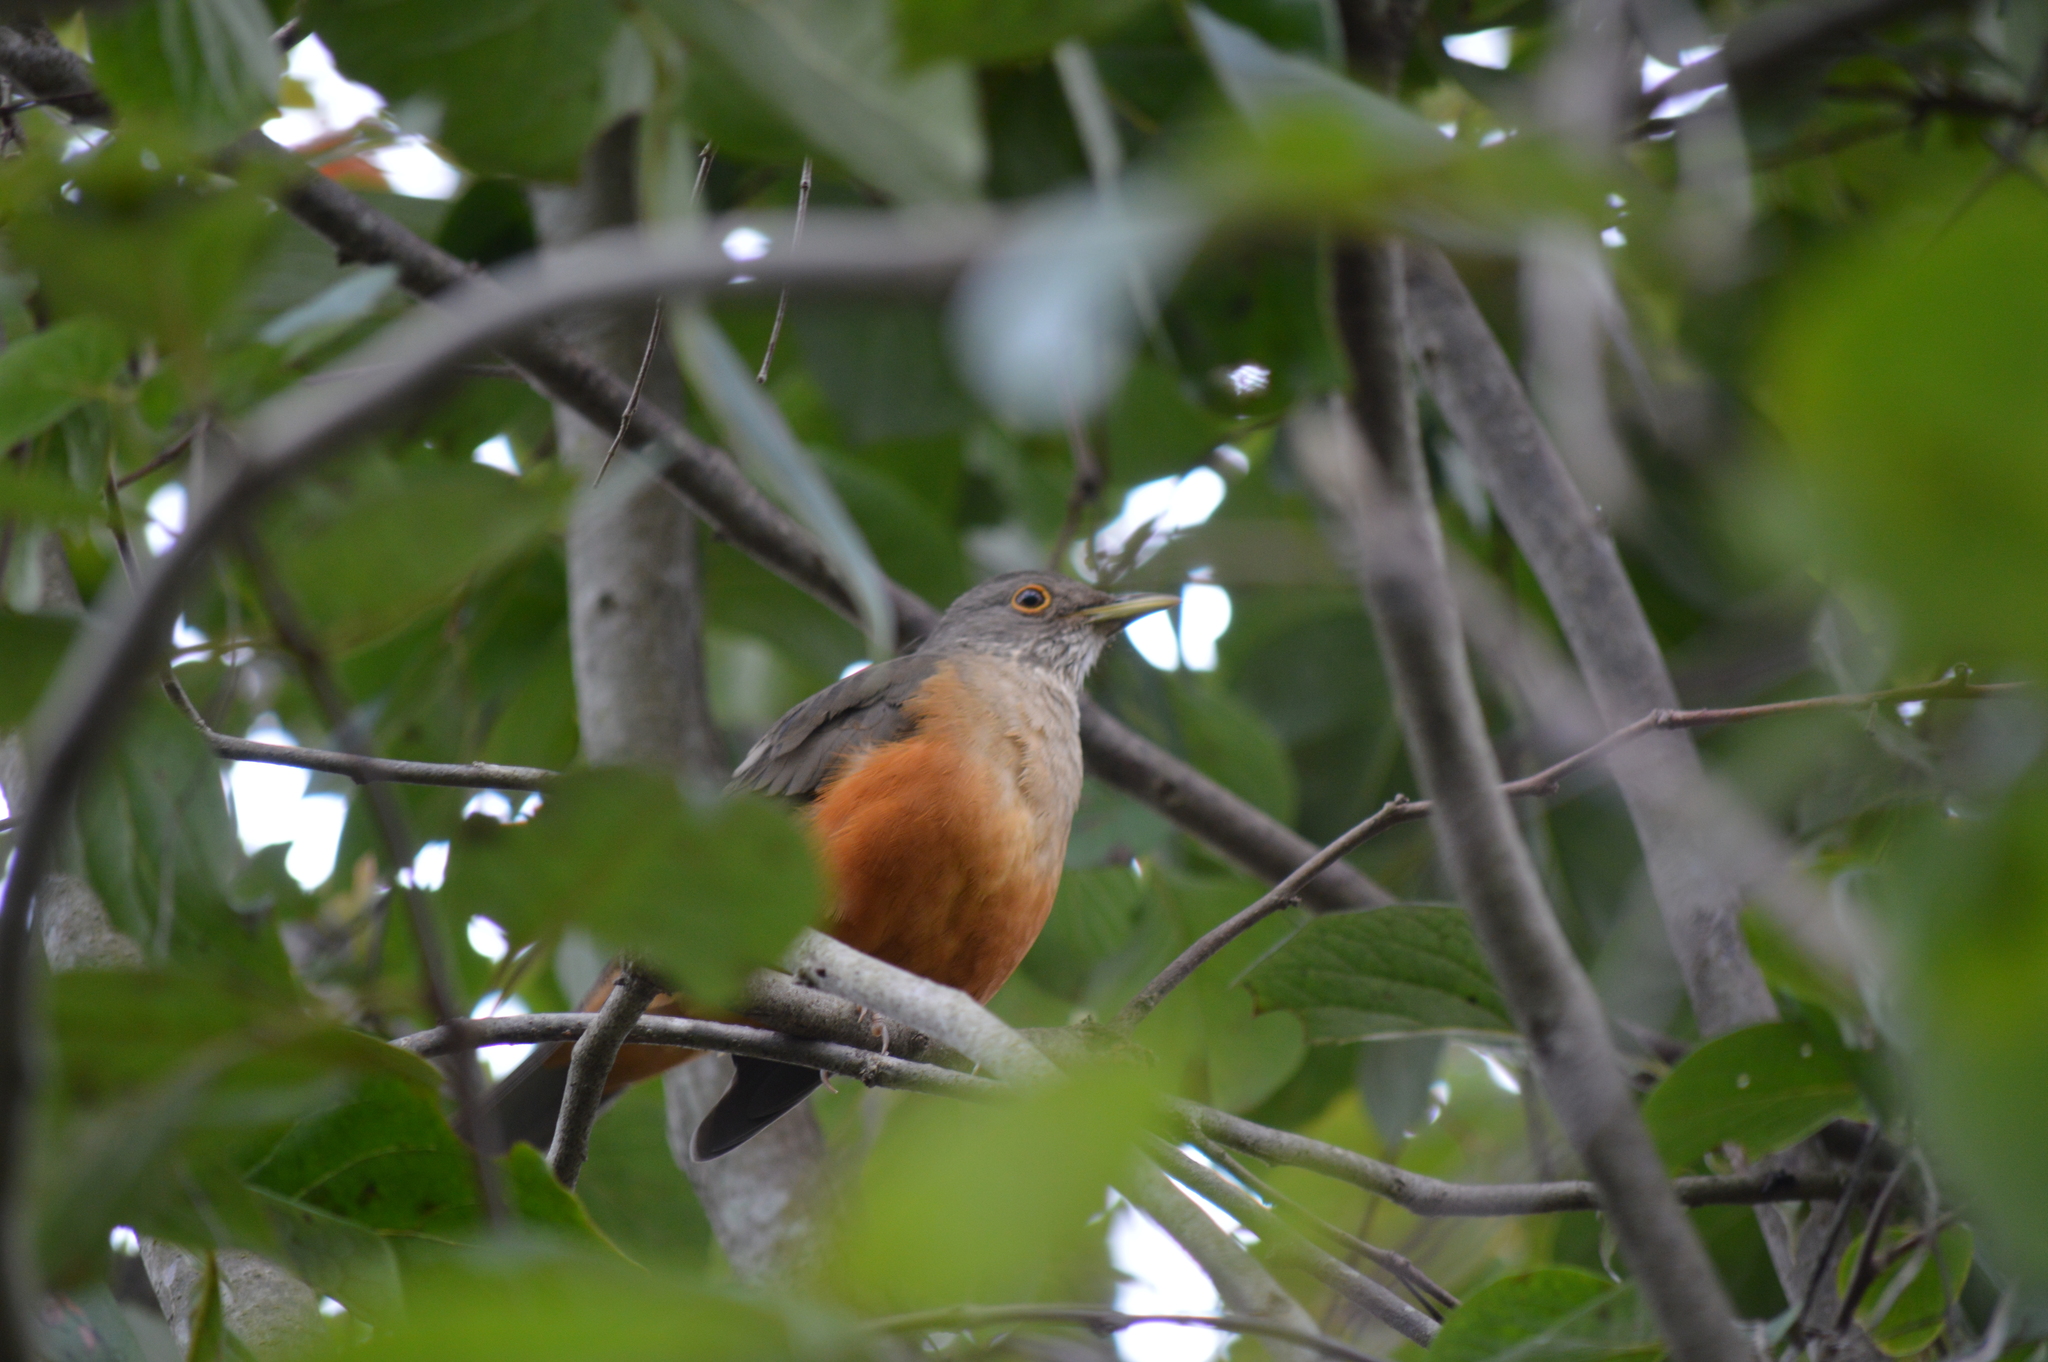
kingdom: Animalia
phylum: Chordata
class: Aves
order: Passeriformes
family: Turdidae
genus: Turdus
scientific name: Turdus rufiventris
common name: Rufous-bellied thrush
